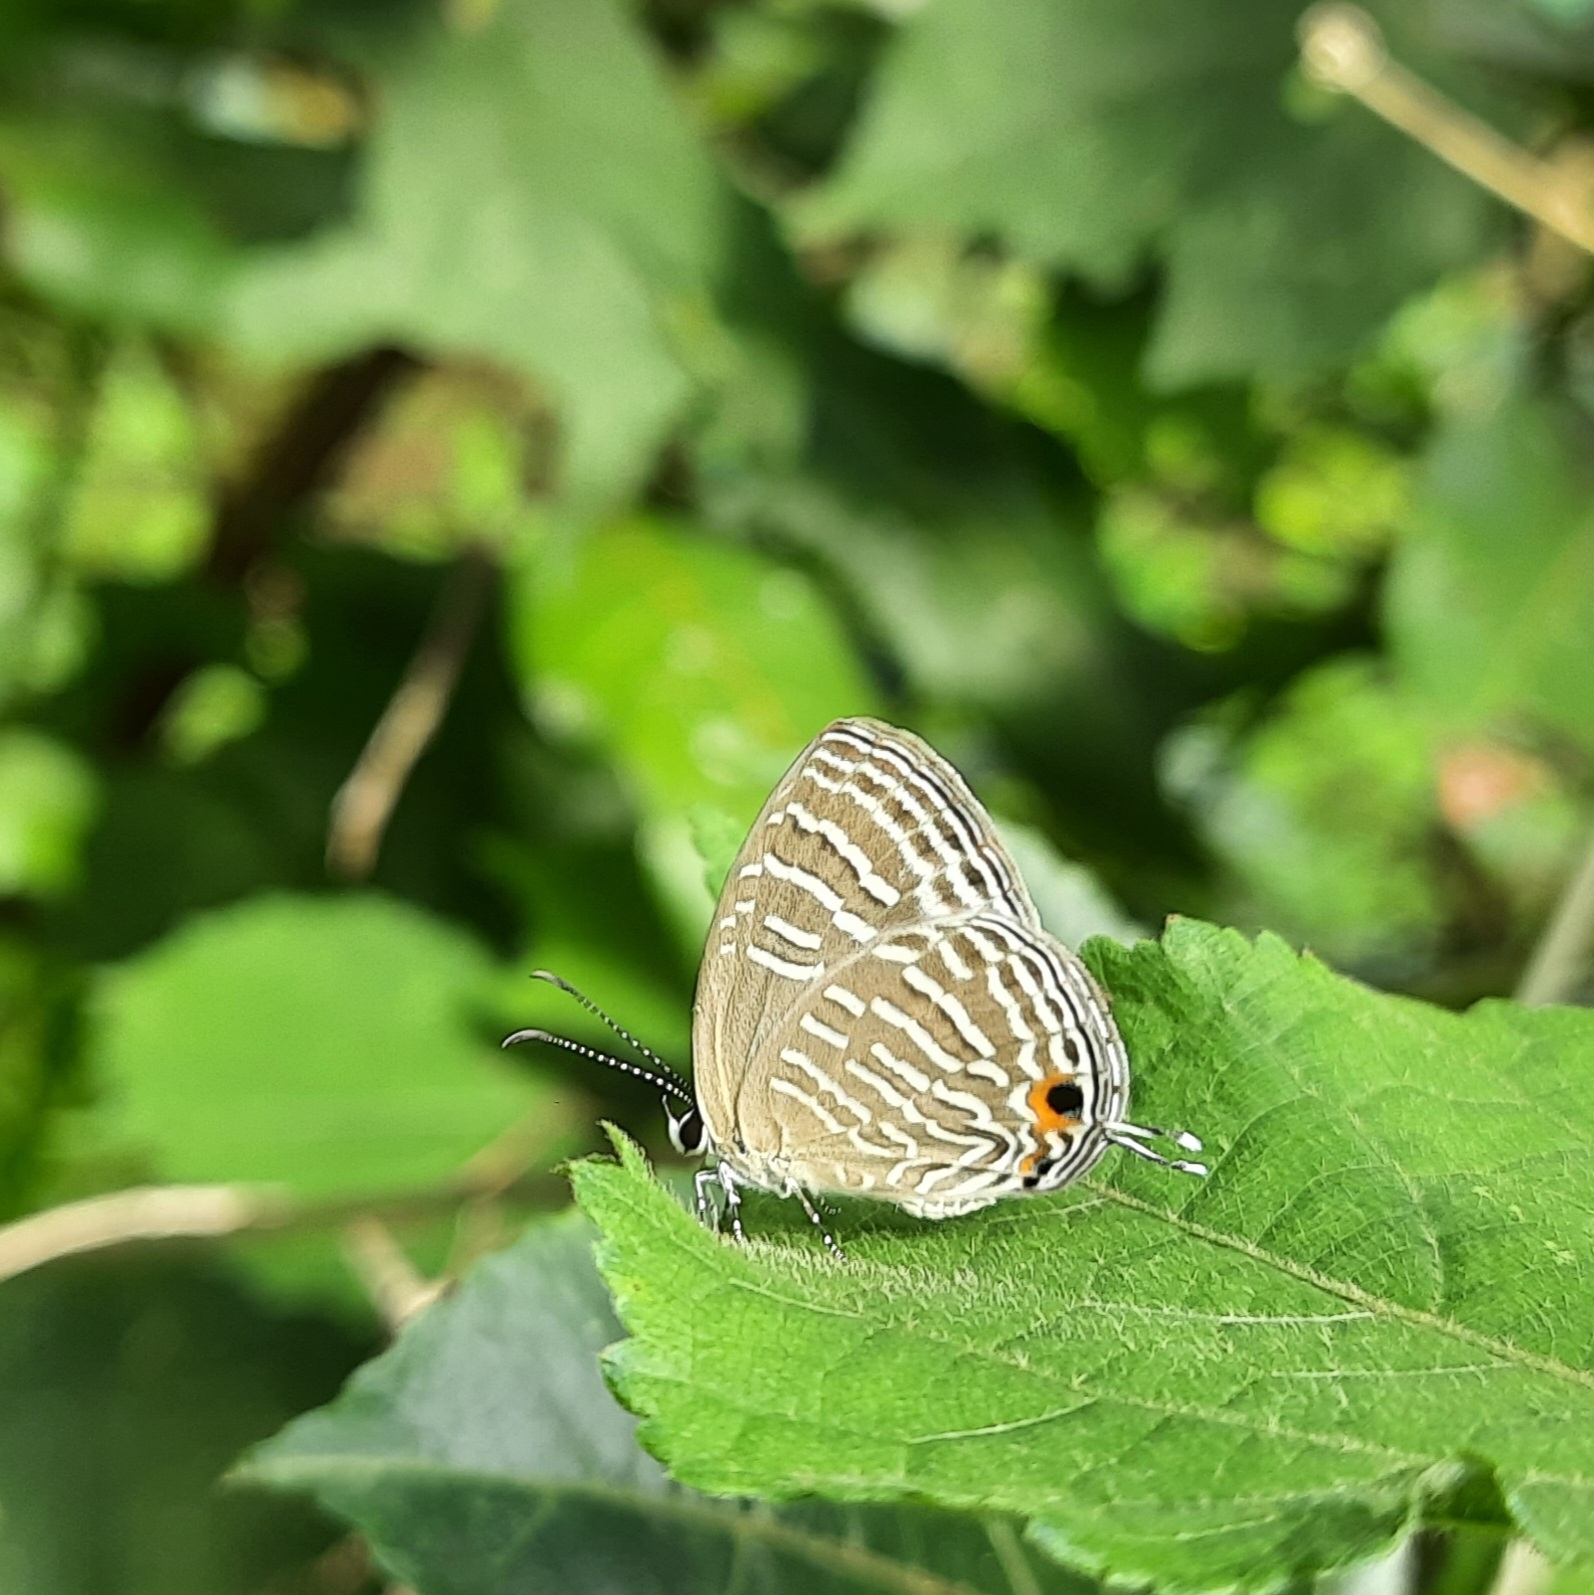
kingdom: Animalia
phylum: Arthropoda
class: Insecta
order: Lepidoptera
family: Lycaenidae
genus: Jamides
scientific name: Jamides celeno
